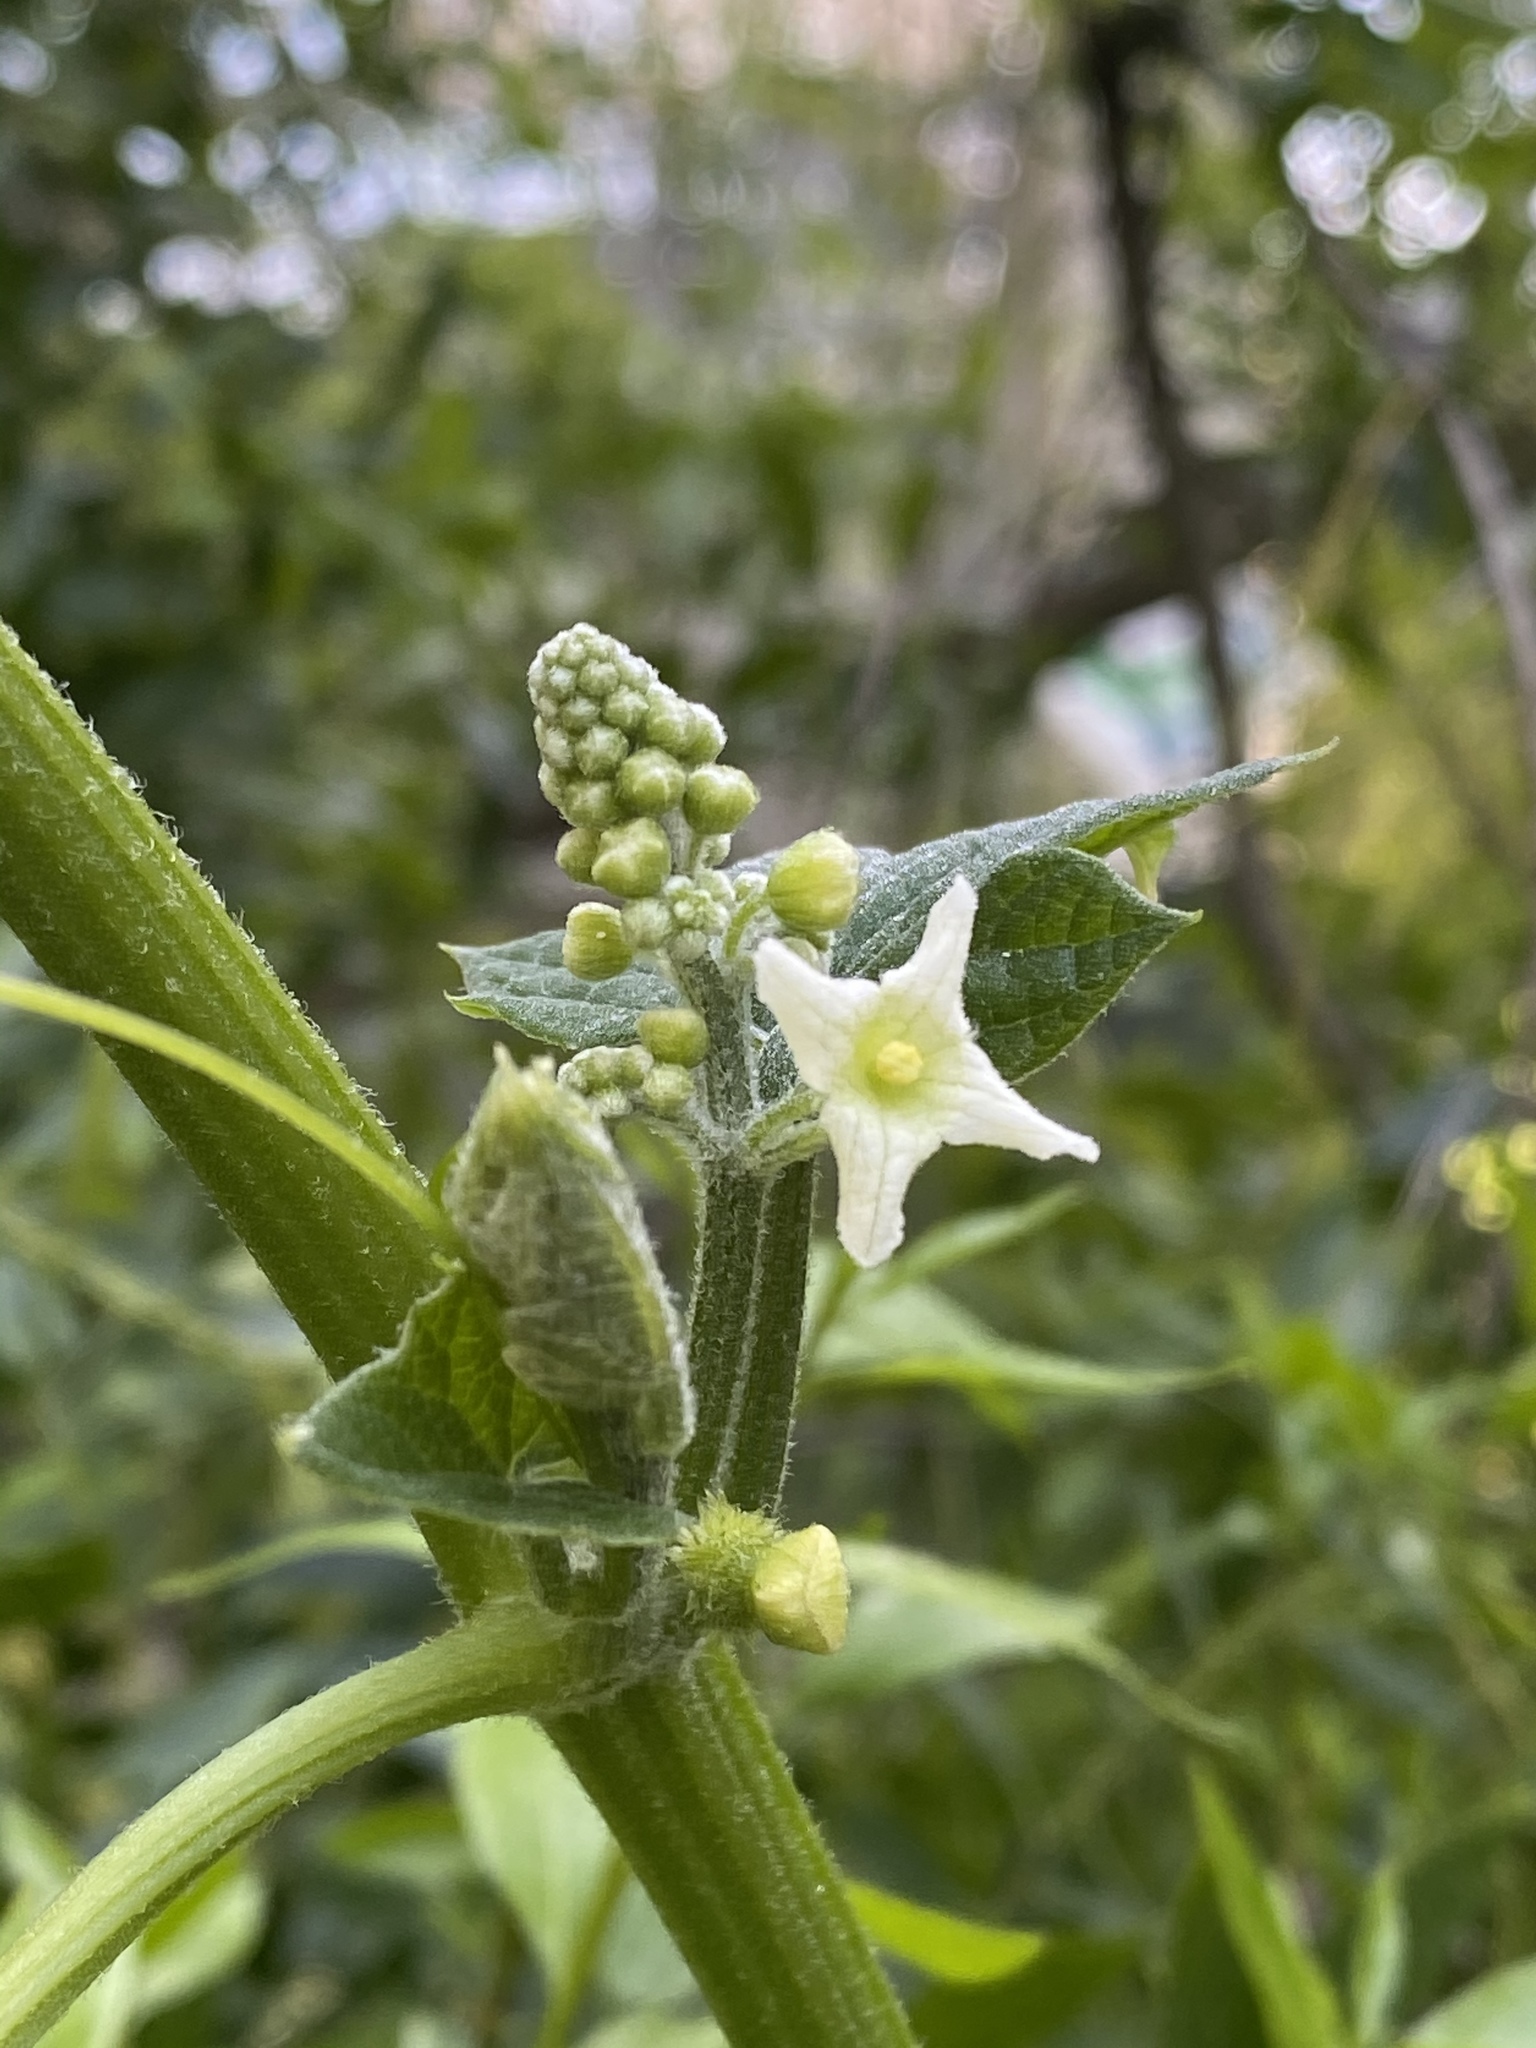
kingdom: Plantae
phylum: Tracheophyta
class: Magnoliopsida
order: Cucurbitales
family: Cucurbitaceae
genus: Marah
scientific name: Marah fabacea
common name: California manroot
